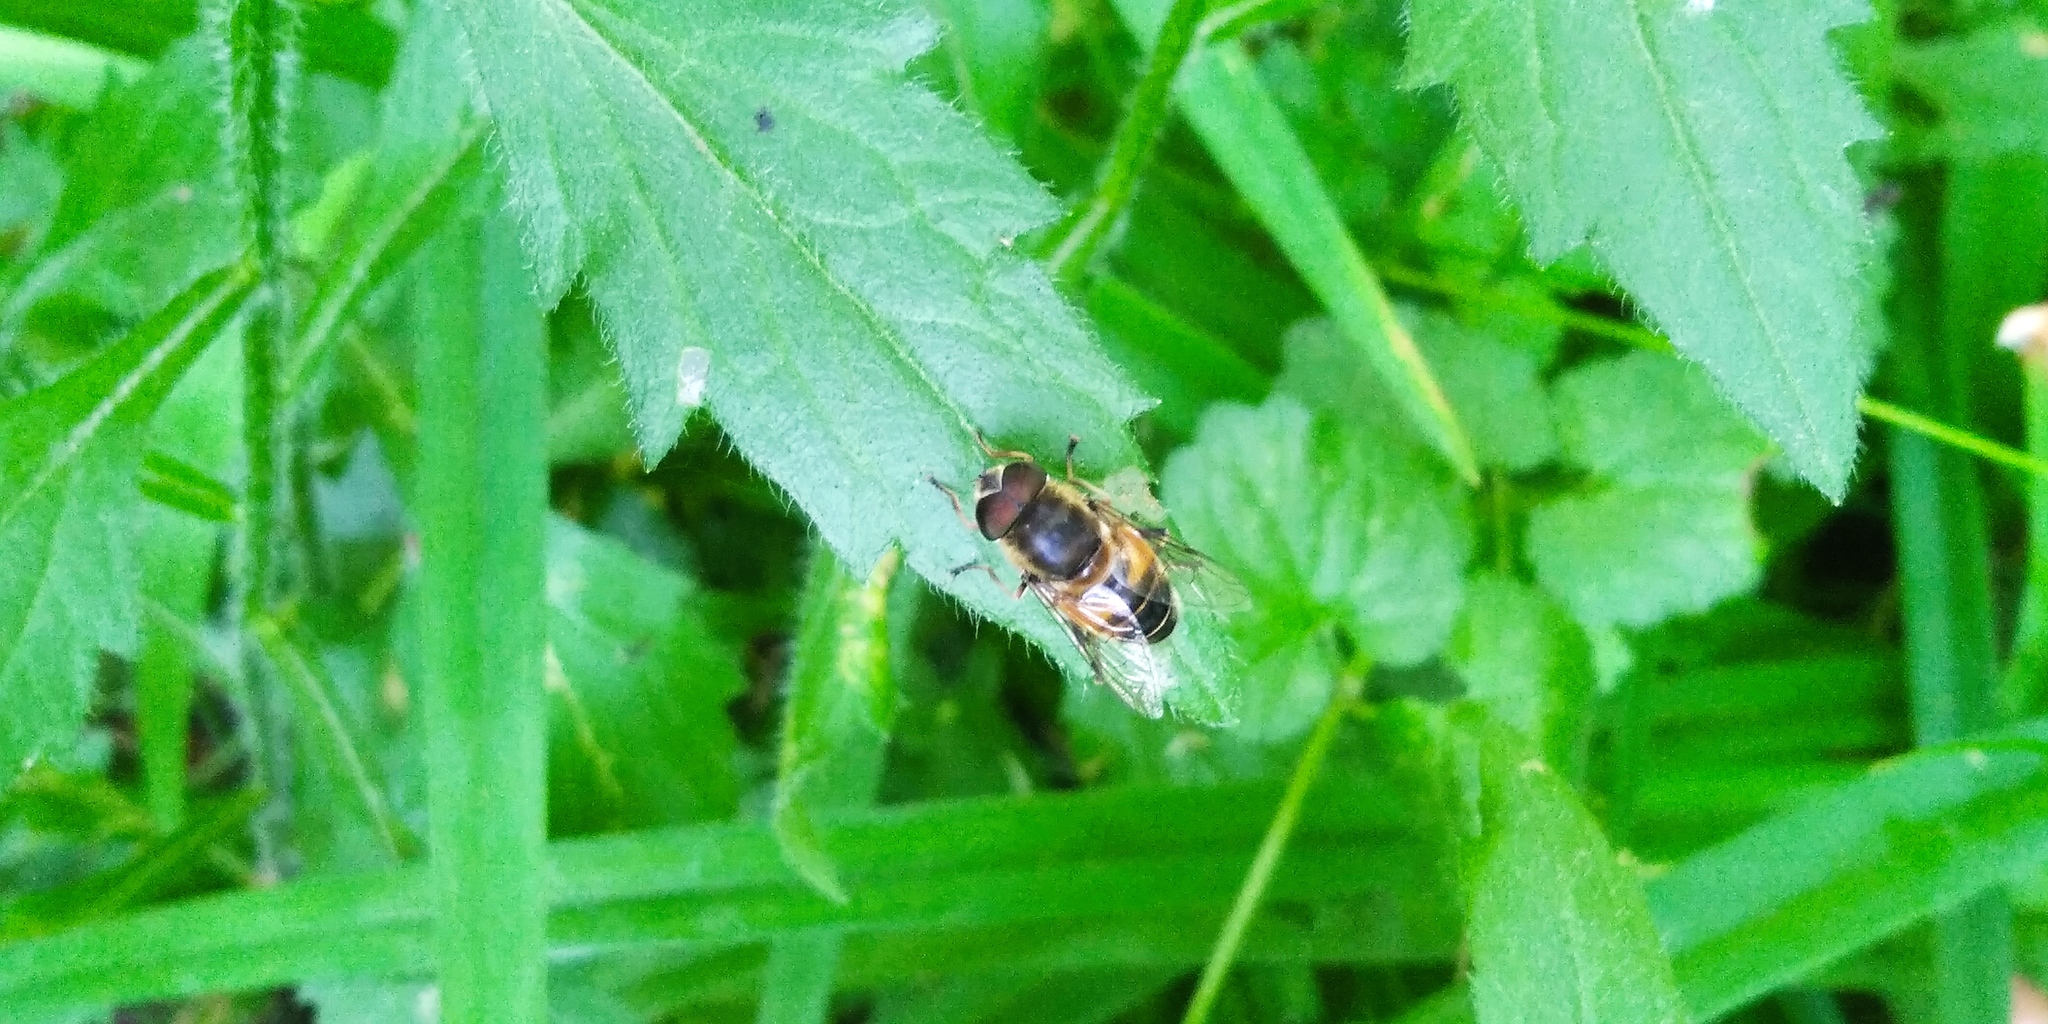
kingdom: Animalia
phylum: Arthropoda
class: Insecta
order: Diptera
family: Syrphidae
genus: Eristalis
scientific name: Eristalis pertinax
